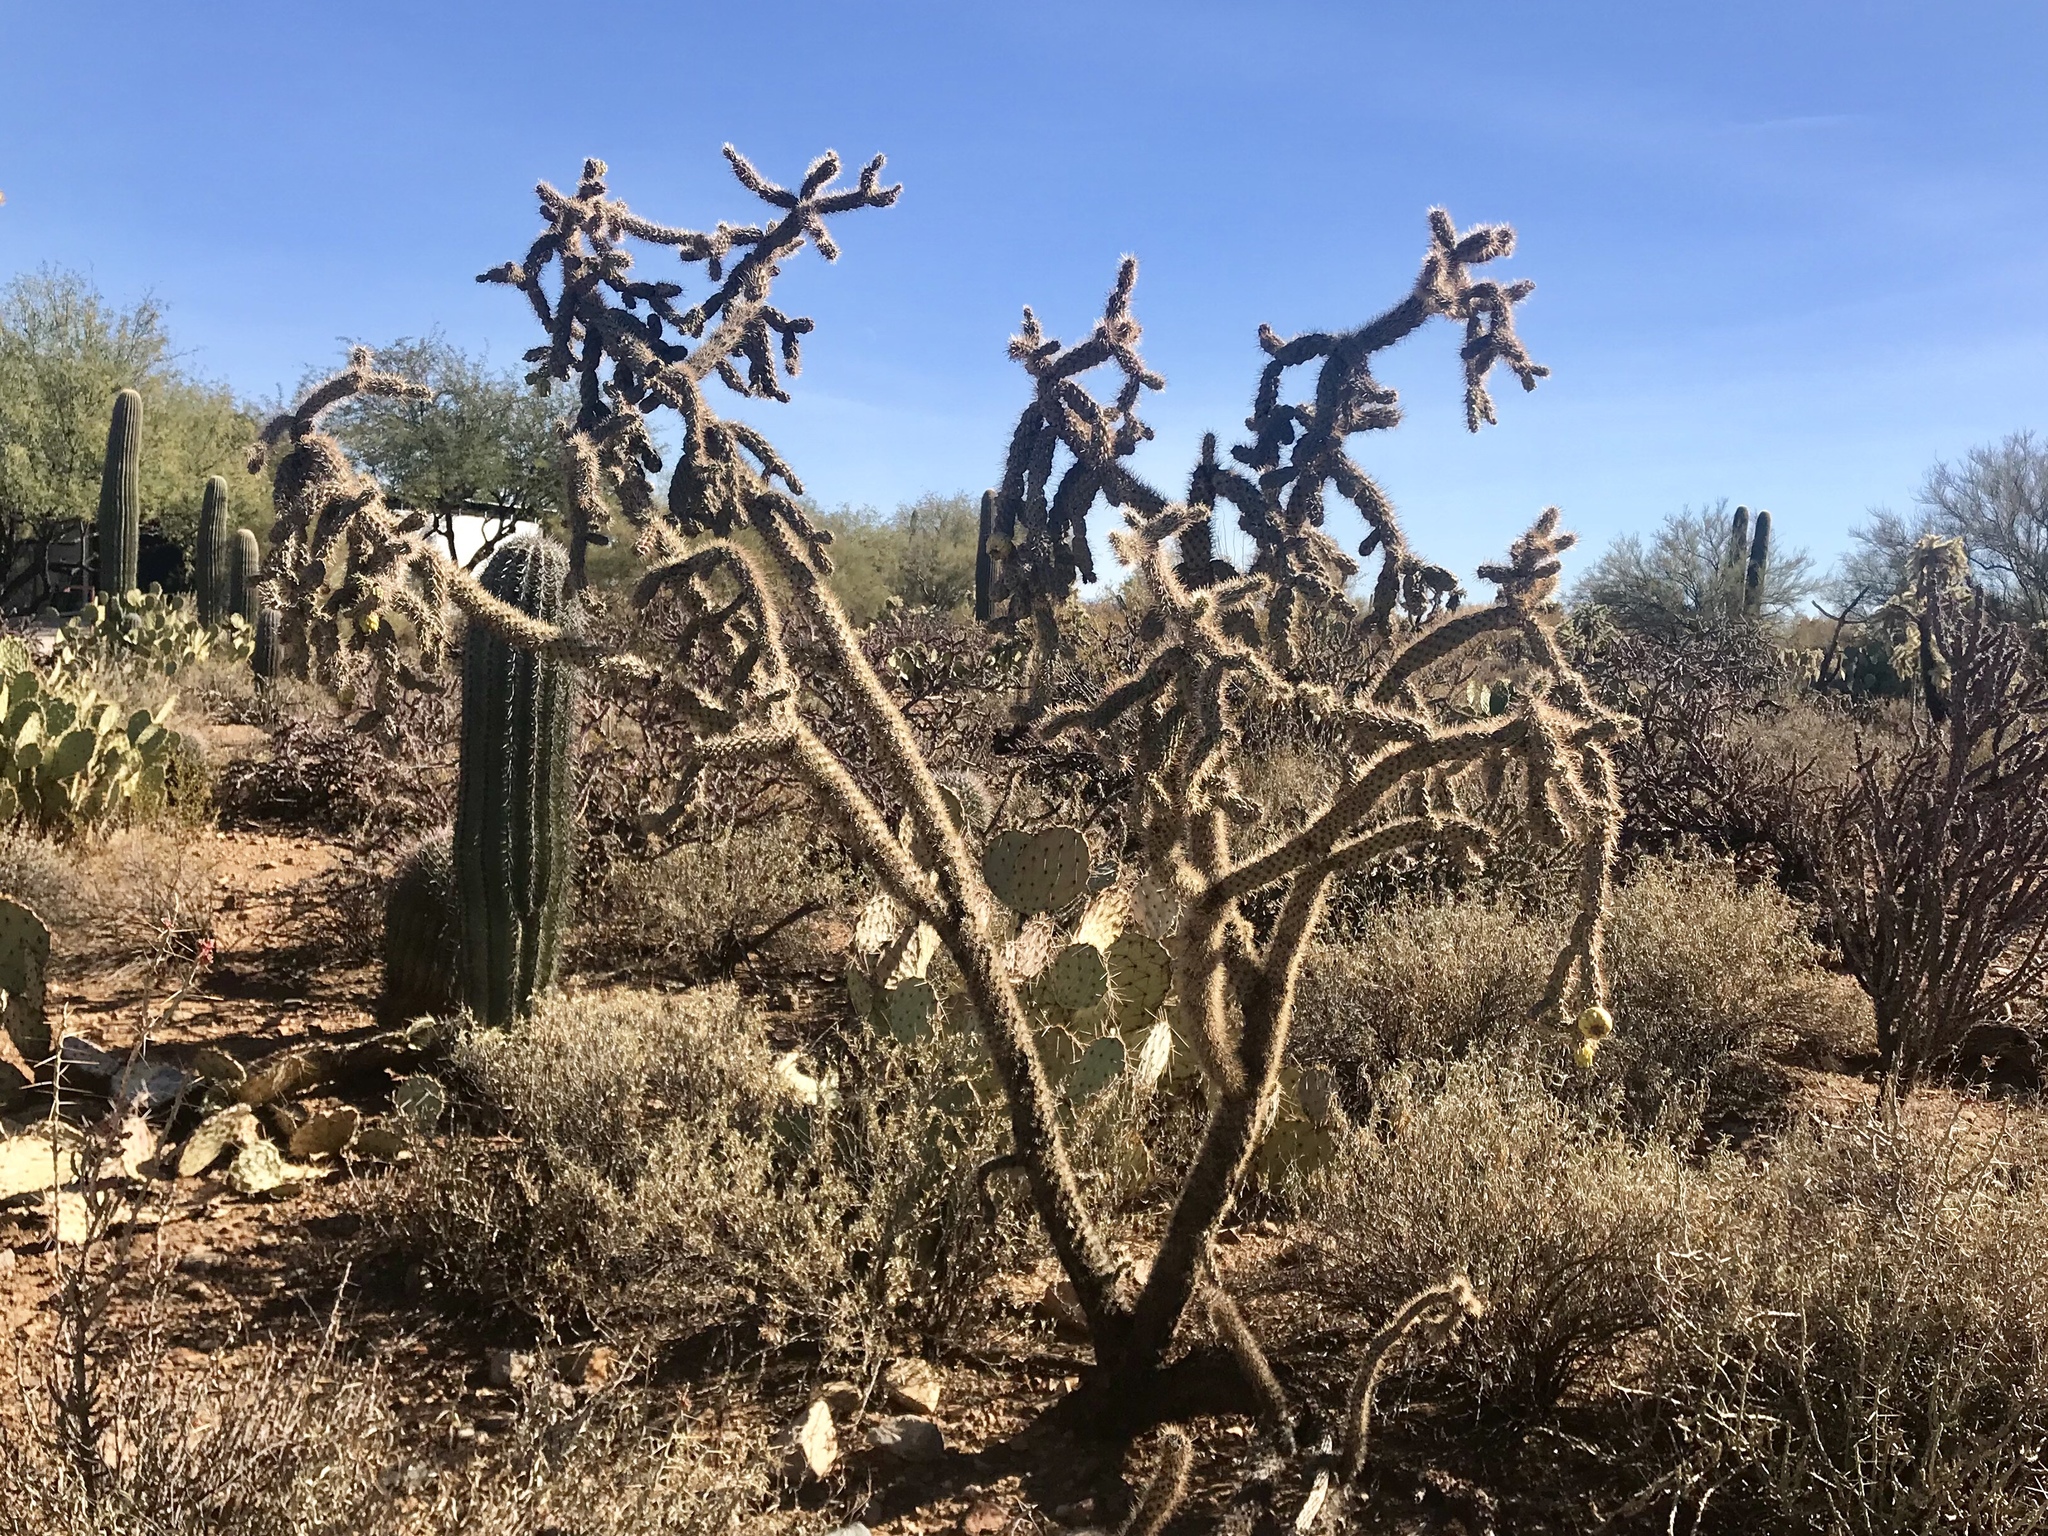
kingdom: Plantae
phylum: Tracheophyta
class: Magnoliopsida
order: Caryophyllales
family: Cactaceae
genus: Cylindropuntia
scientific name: Cylindropuntia imbricata
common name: Candelabrum cactus
